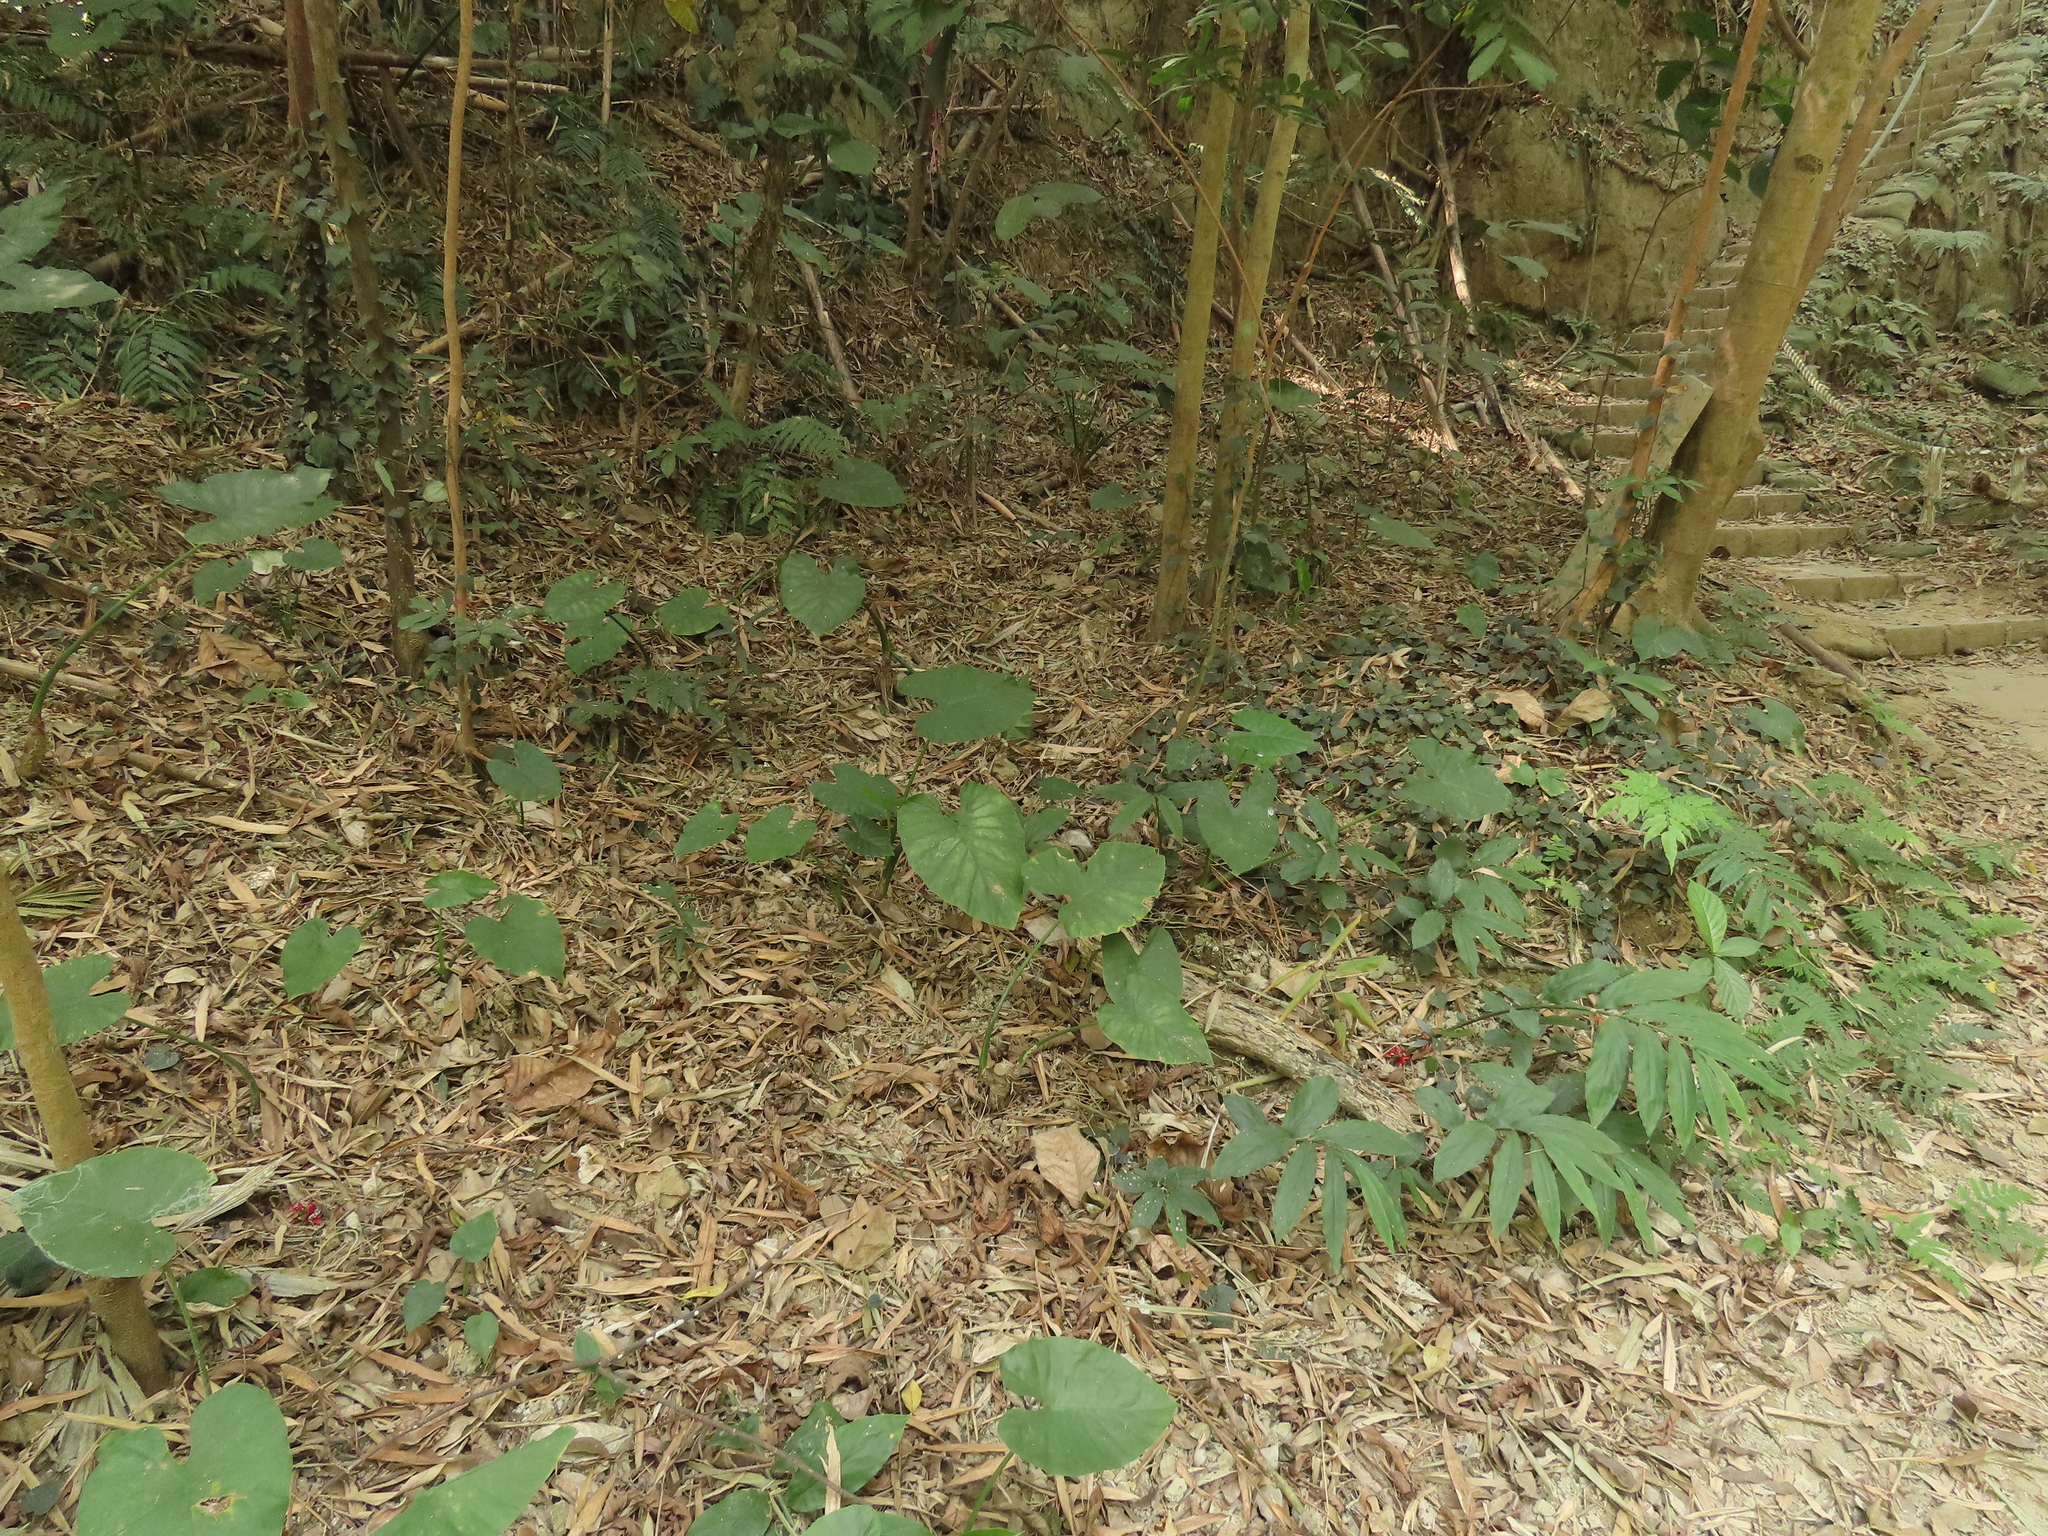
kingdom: Plantae
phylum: Tracheophyta
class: Liliopsida
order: Zingiberales
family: Zingiberaceae
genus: Zingiber
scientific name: Zingiber kawagoii
